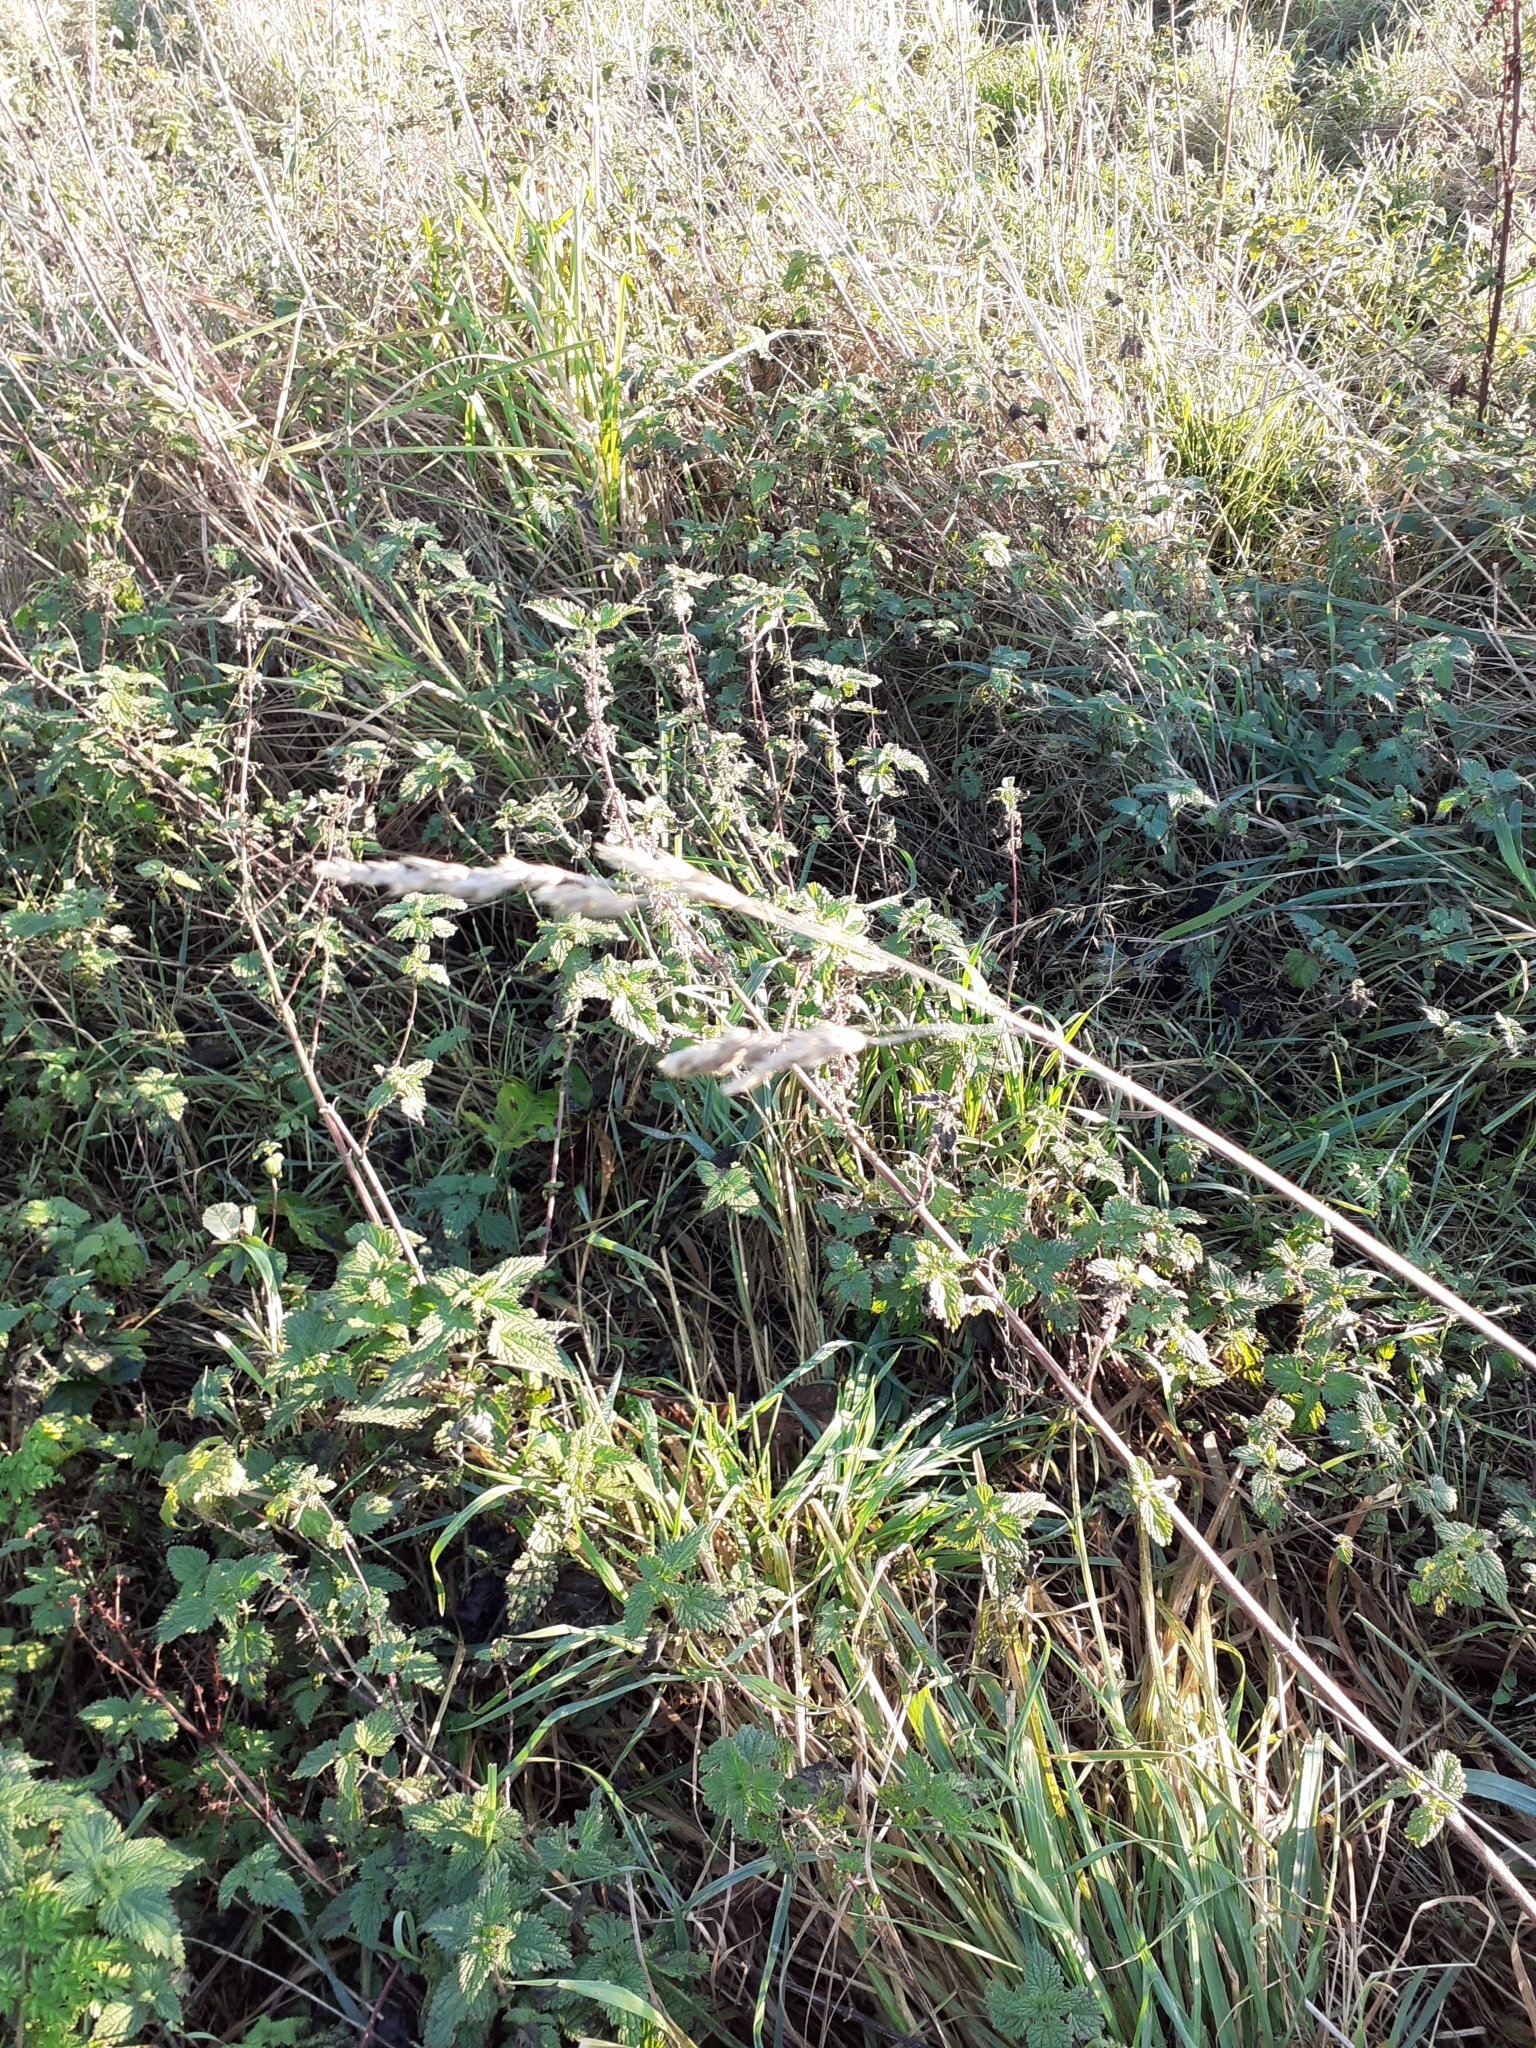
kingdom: Plantae
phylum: Tracheophyta
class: Liliopsida
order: Poales
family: Poaceae
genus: Dactylis
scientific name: Dactylis glomerata
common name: Orchardgrass
